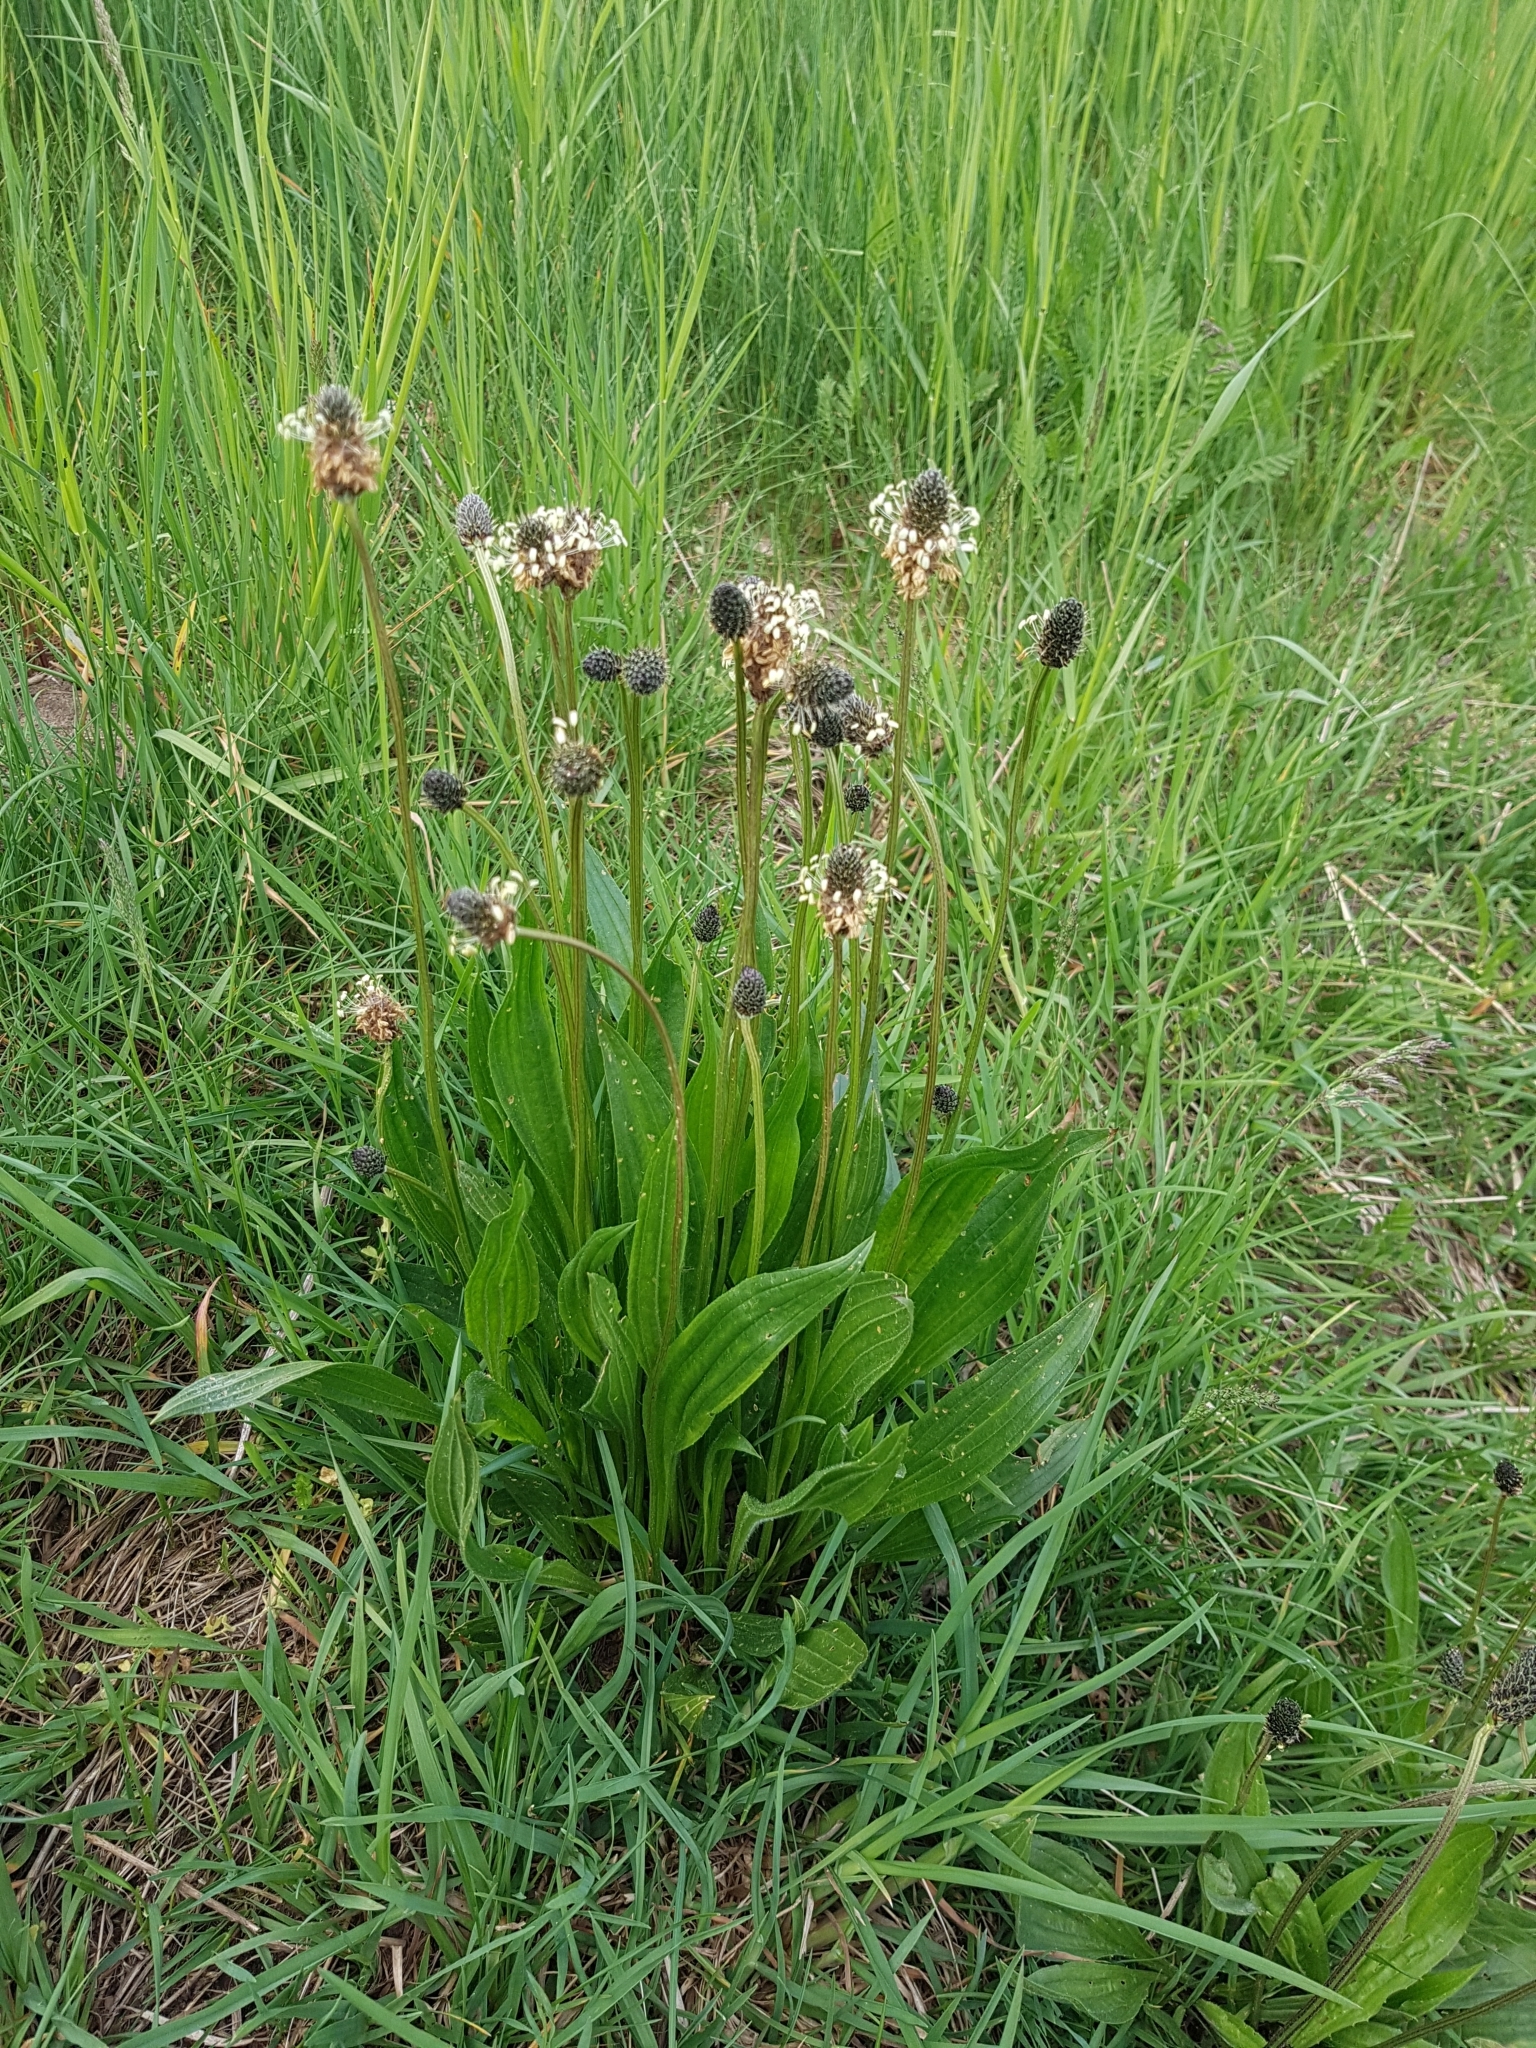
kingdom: Plantae
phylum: Tracheophyta
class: Magnoliopsida
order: Lamiales
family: Plantaginaceae
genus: Plantago
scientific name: Plantago lanceolata
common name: Ribwort plantain
